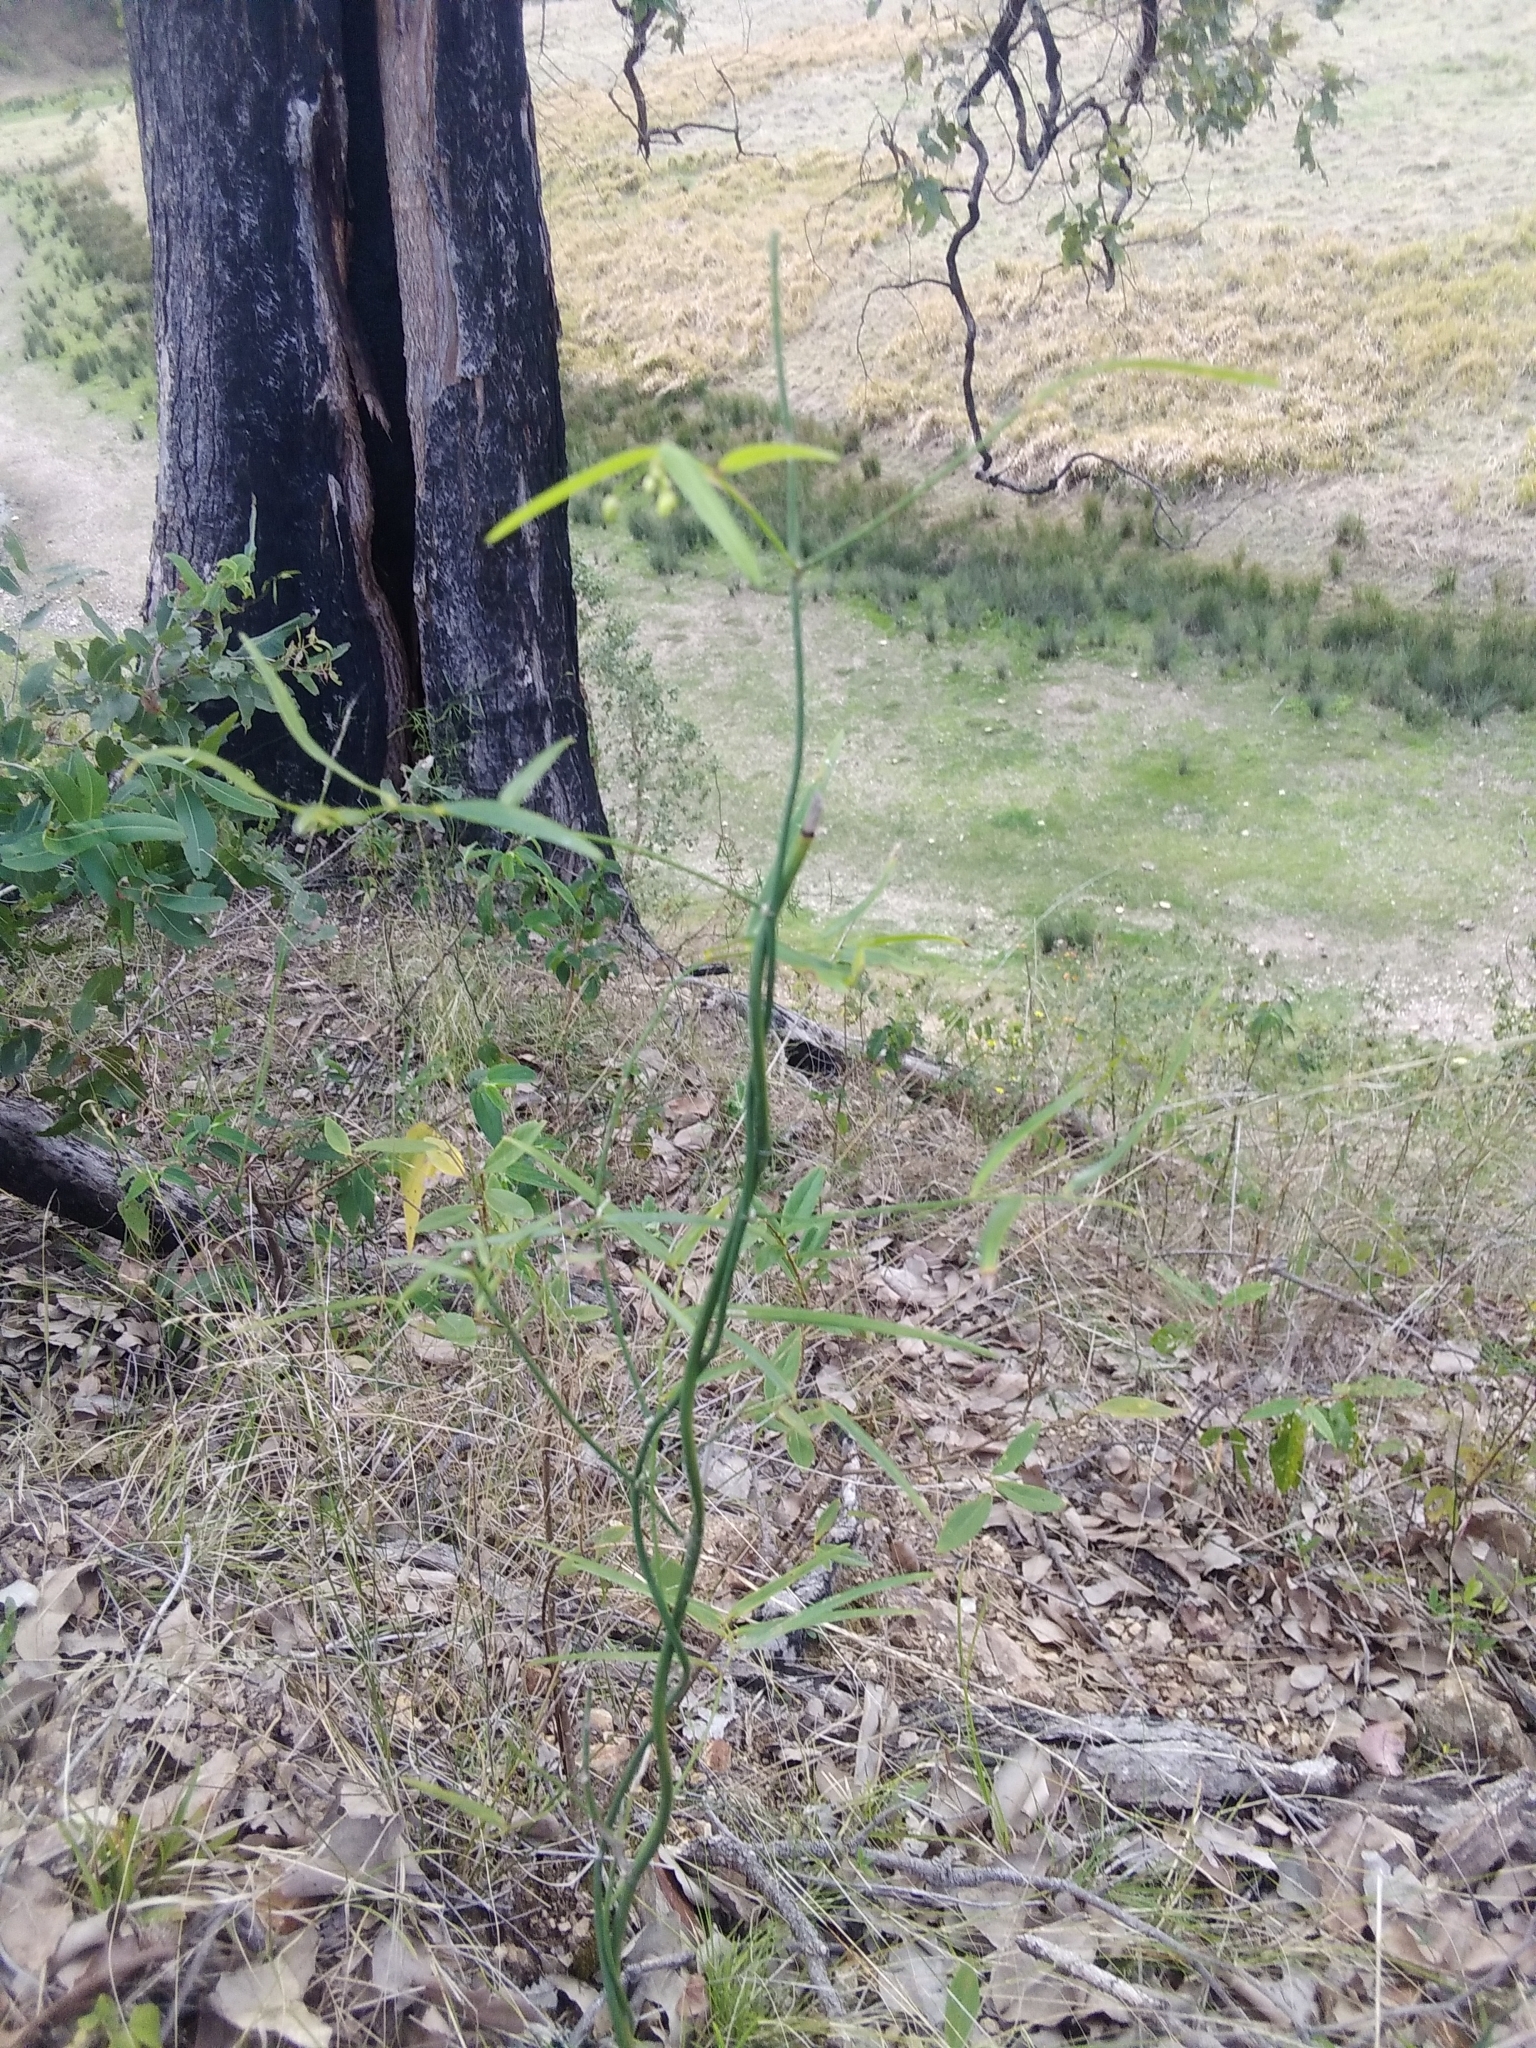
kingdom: Plantae
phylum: Tracheophyta
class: Liliopsida
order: Asparagales
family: Asphodelaceae
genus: Geitonoplesium
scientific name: Geitonoplesium cymosum
